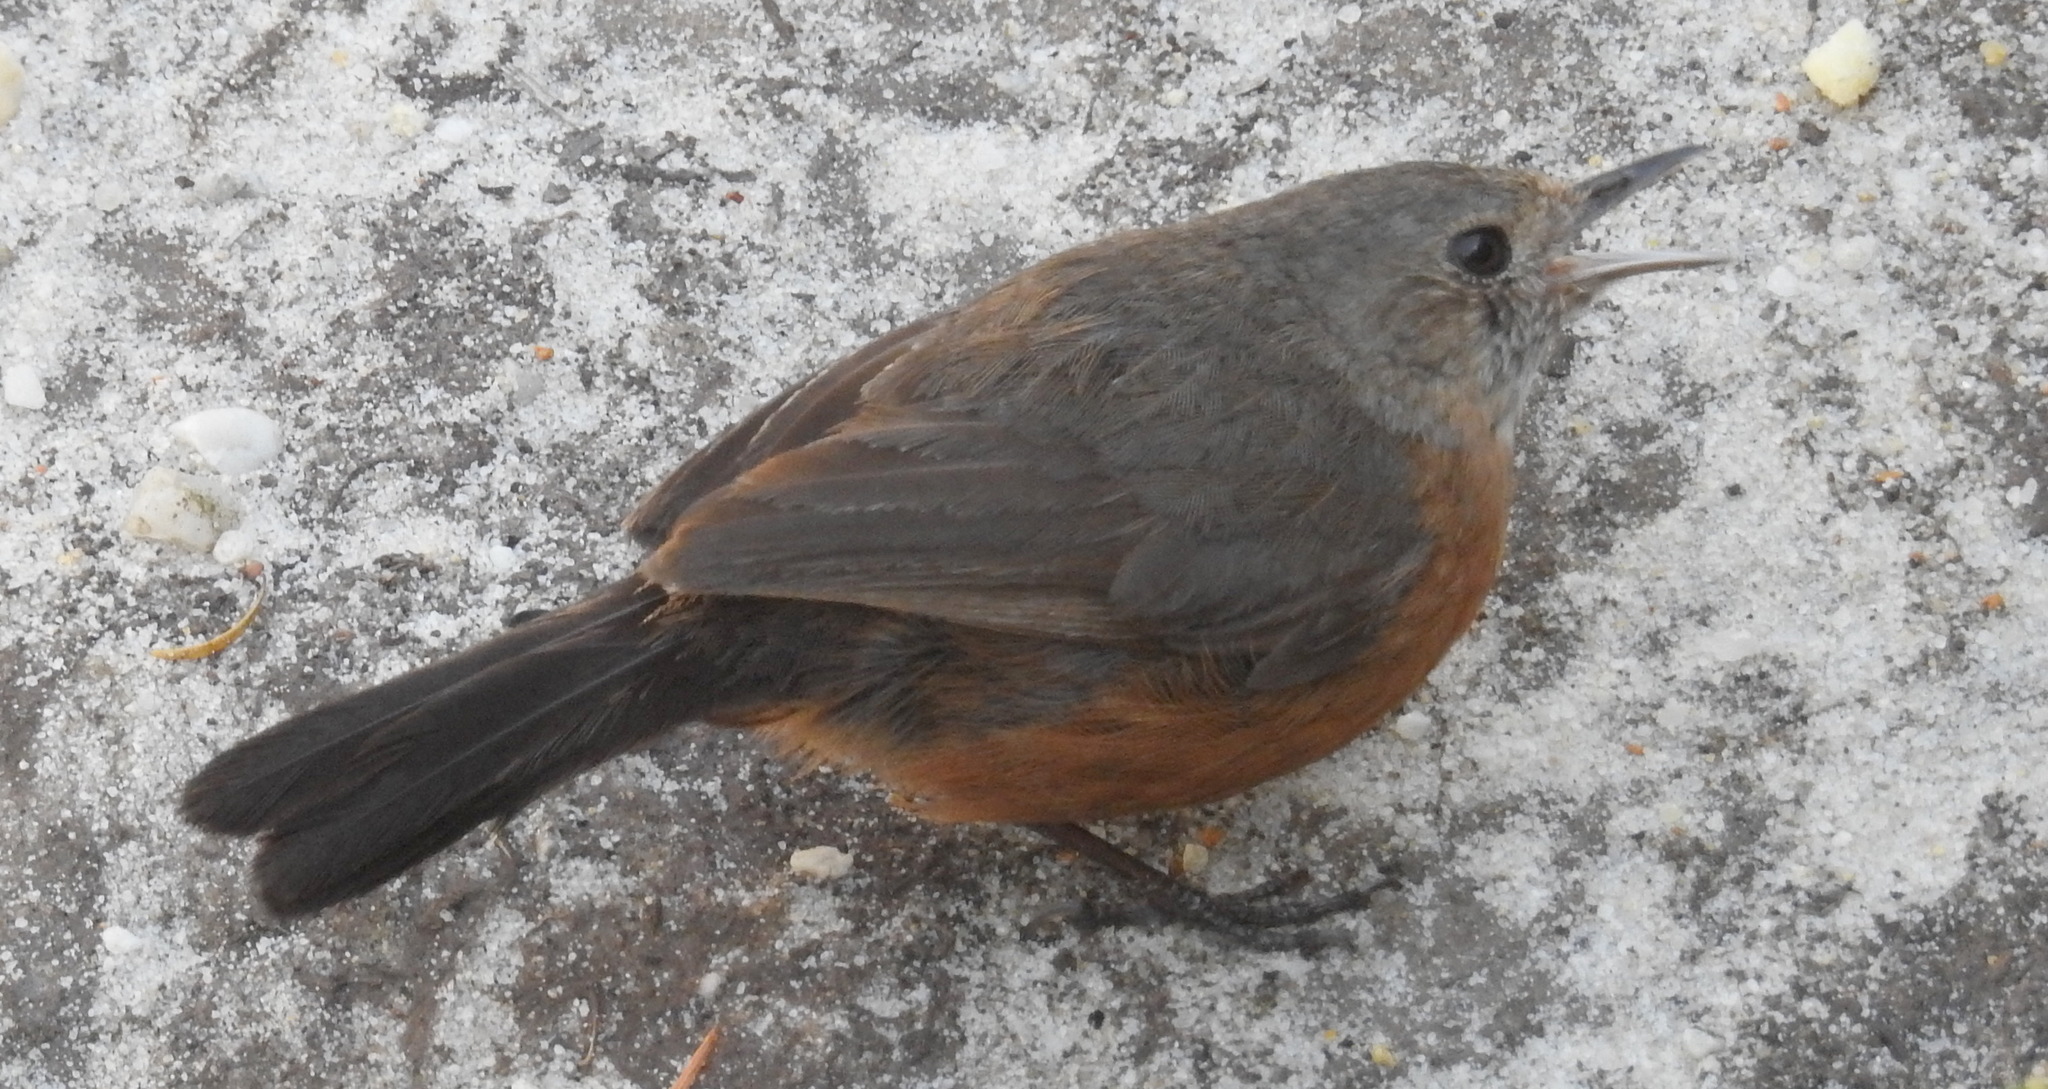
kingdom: Animalia
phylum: Chordata
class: Aves
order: Passeriformes
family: Acanthizidae
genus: Origma
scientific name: Origma solitaria
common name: Rockwarbler
